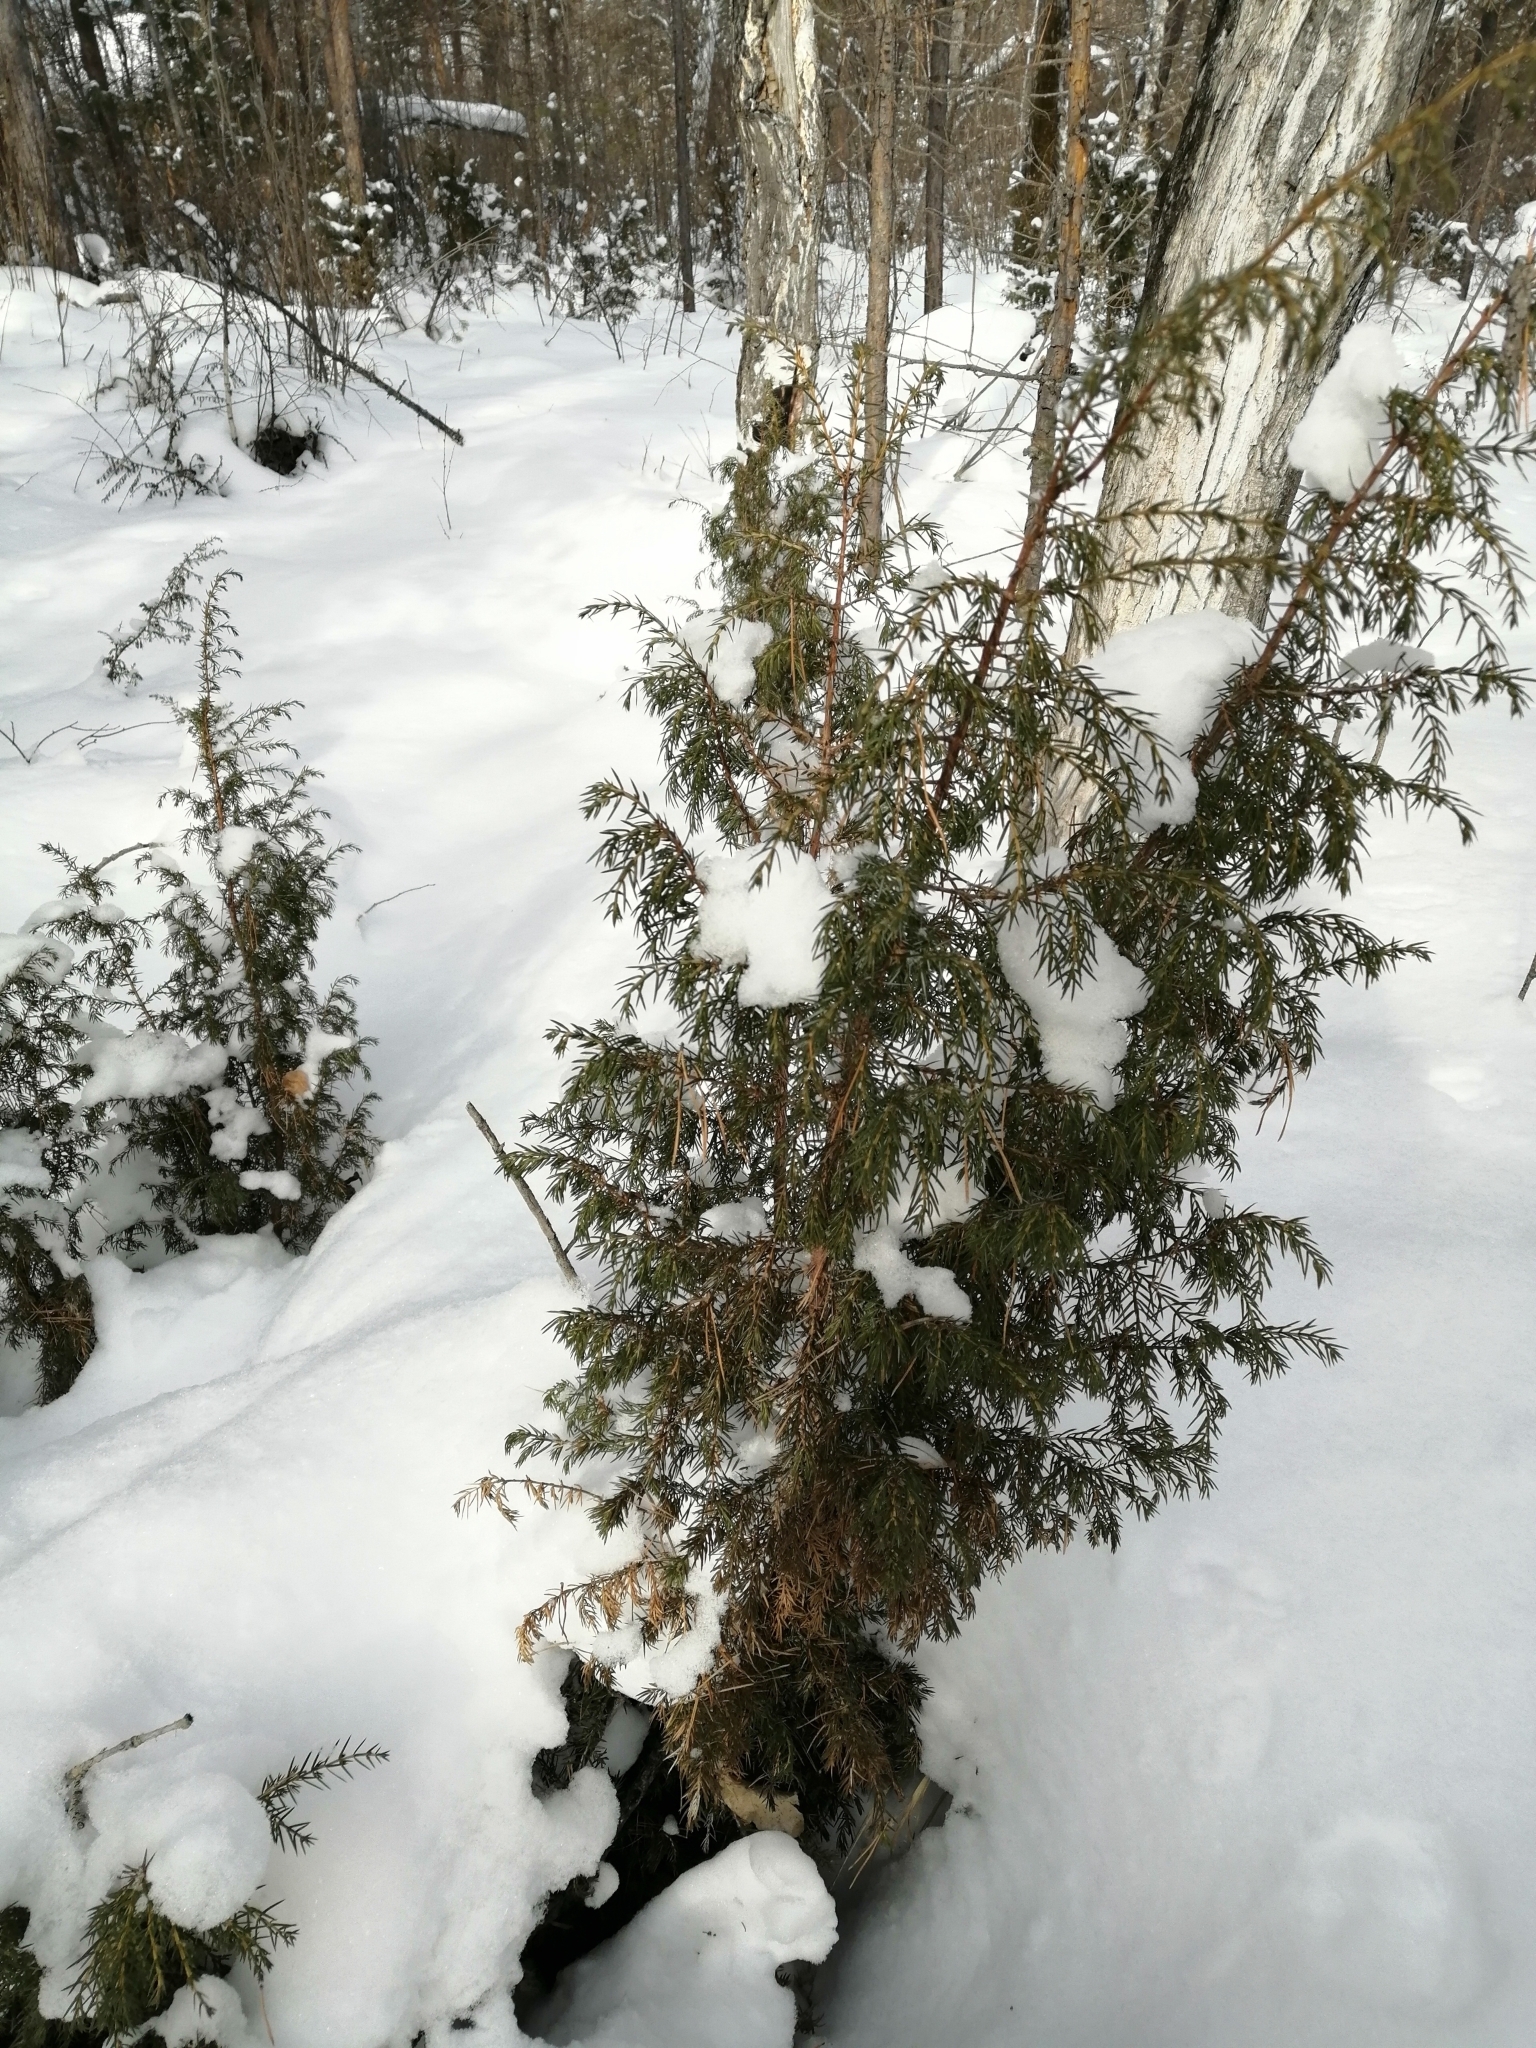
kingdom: Plantae
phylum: Tracheophyta
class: Pinopsida
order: Pinales
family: Cupressaceae
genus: Juniperus
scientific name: Juniperus communis
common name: Common juniper
